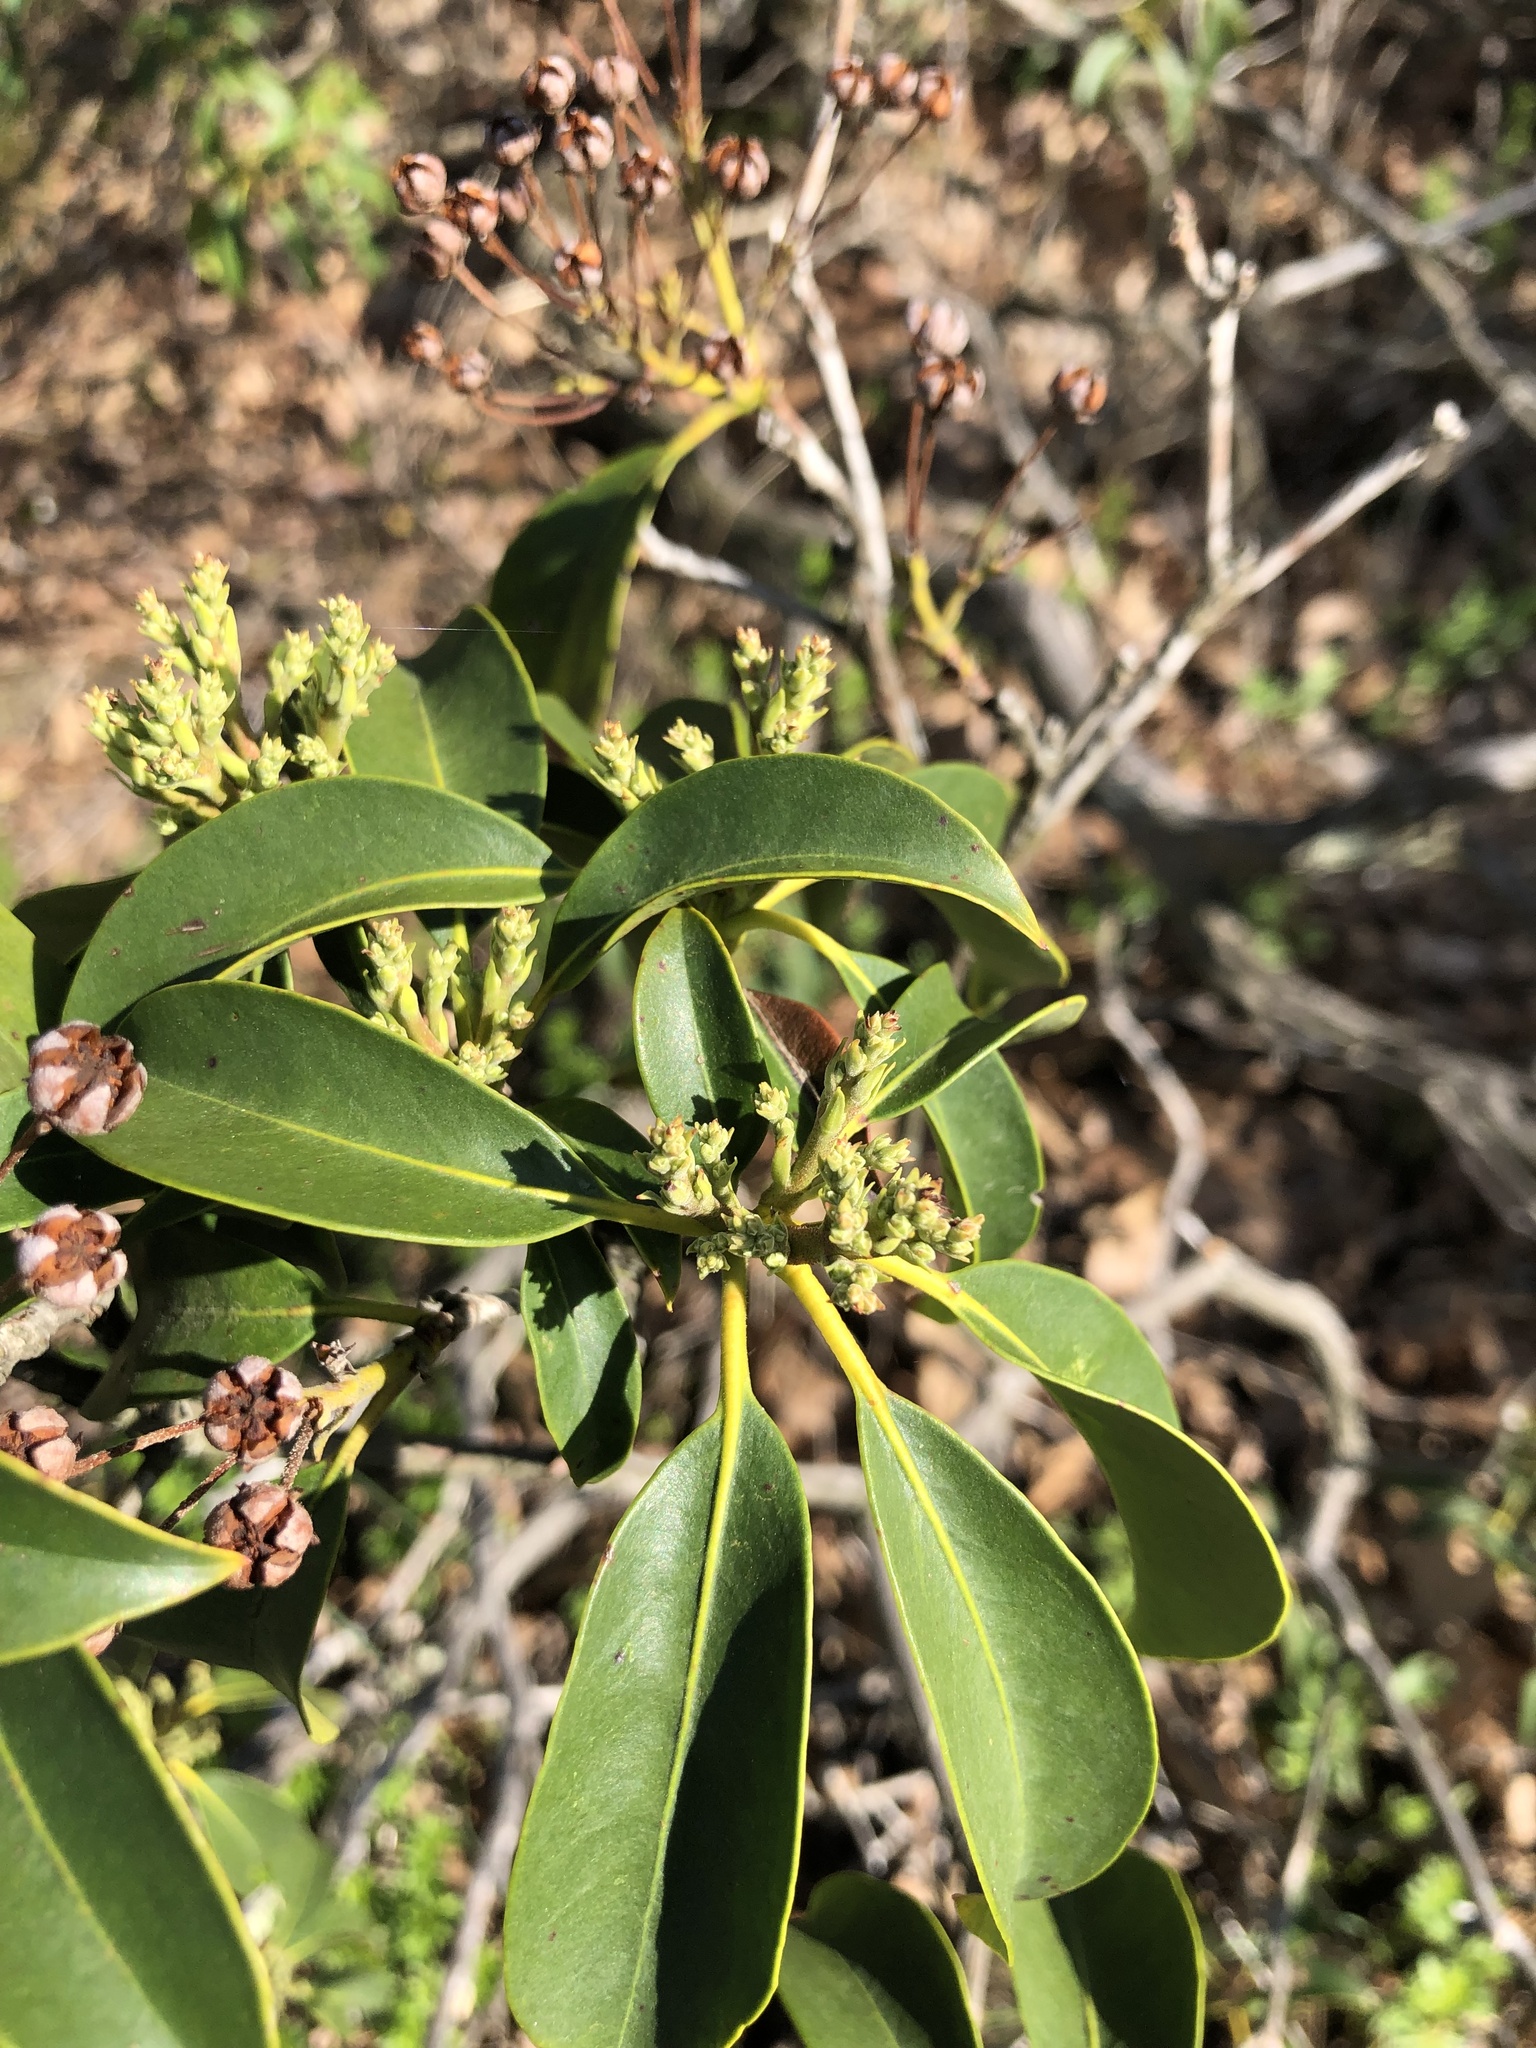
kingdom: Plantae
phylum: Tracheophyta
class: Magnoliopsida
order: Ericales
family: Ericaceae
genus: Kalmia
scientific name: Kalmia latifolia
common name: Mountain-laurel
